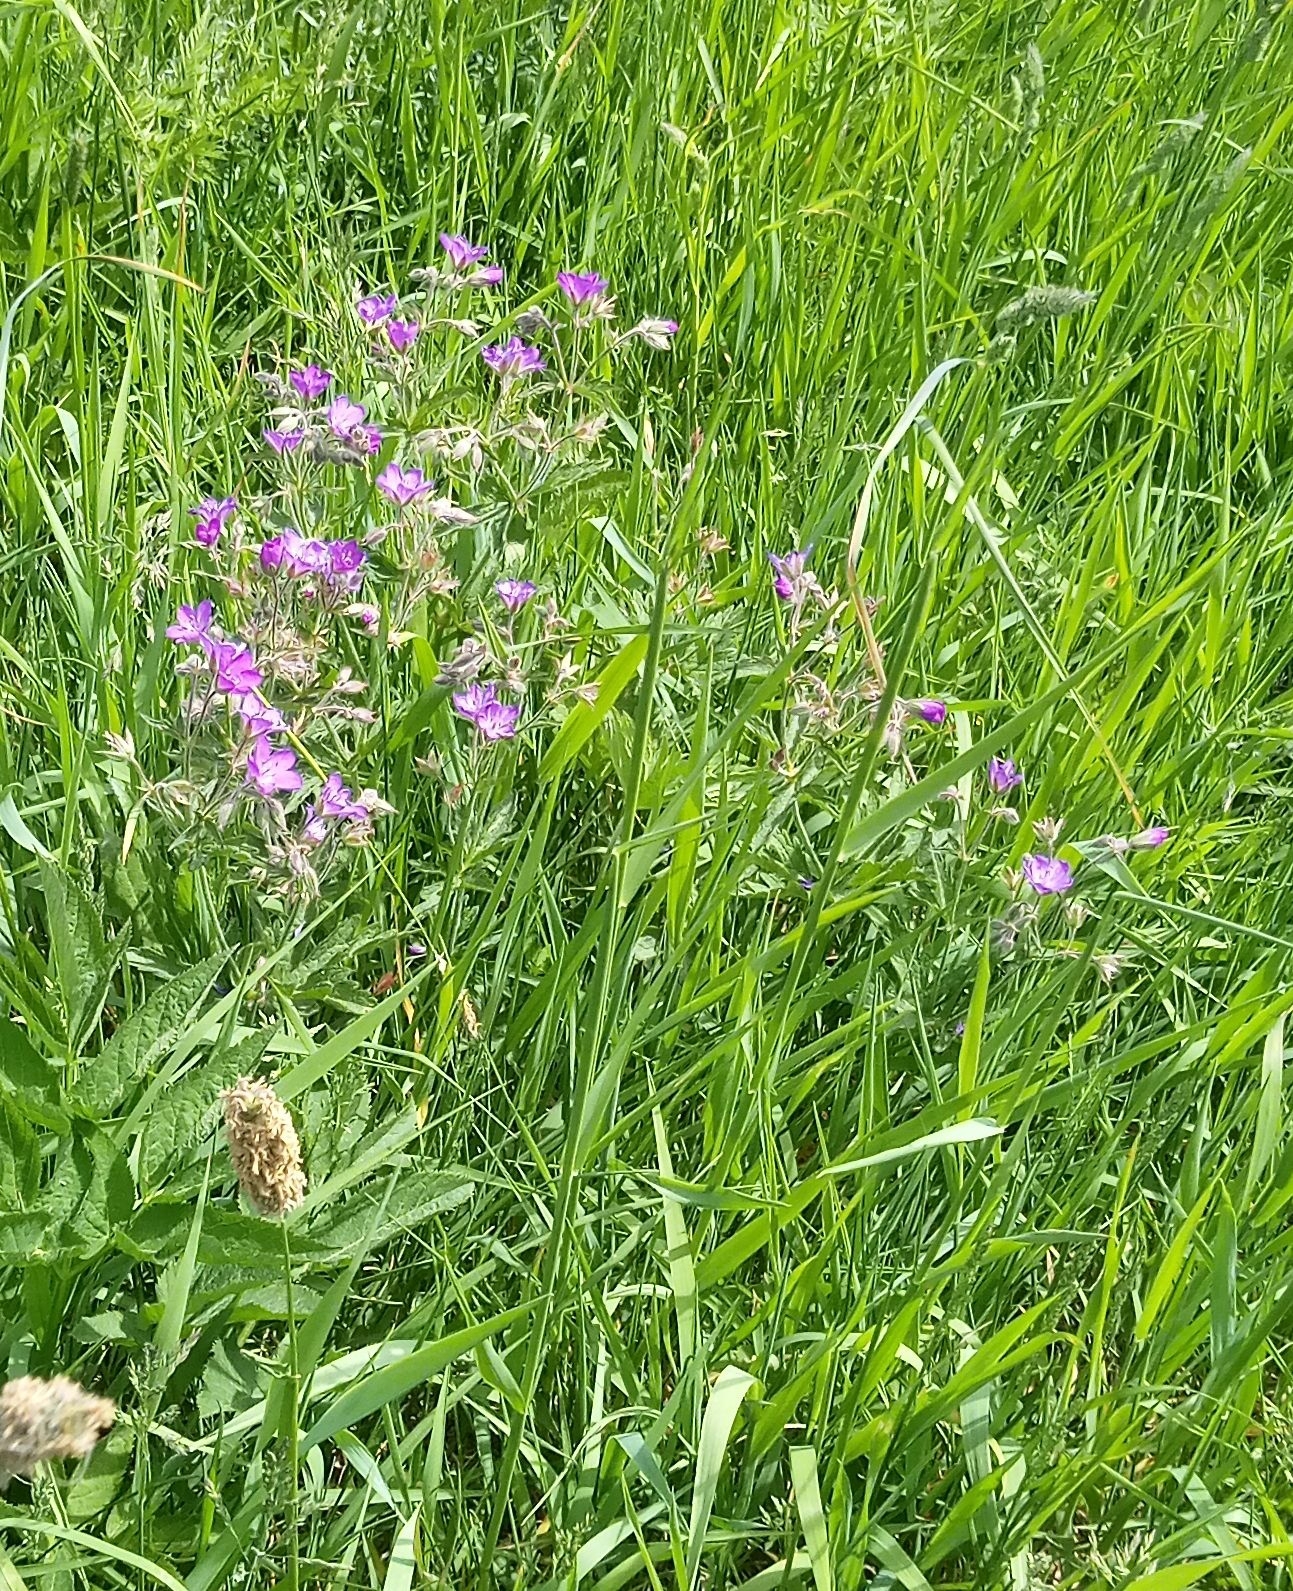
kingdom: Plantae
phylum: Tracheophyta
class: Magnoliopsida
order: Geraniales
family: Geraniaceae
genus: Geranium
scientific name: Geranium sylvaticum
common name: Wood crane's-bill
